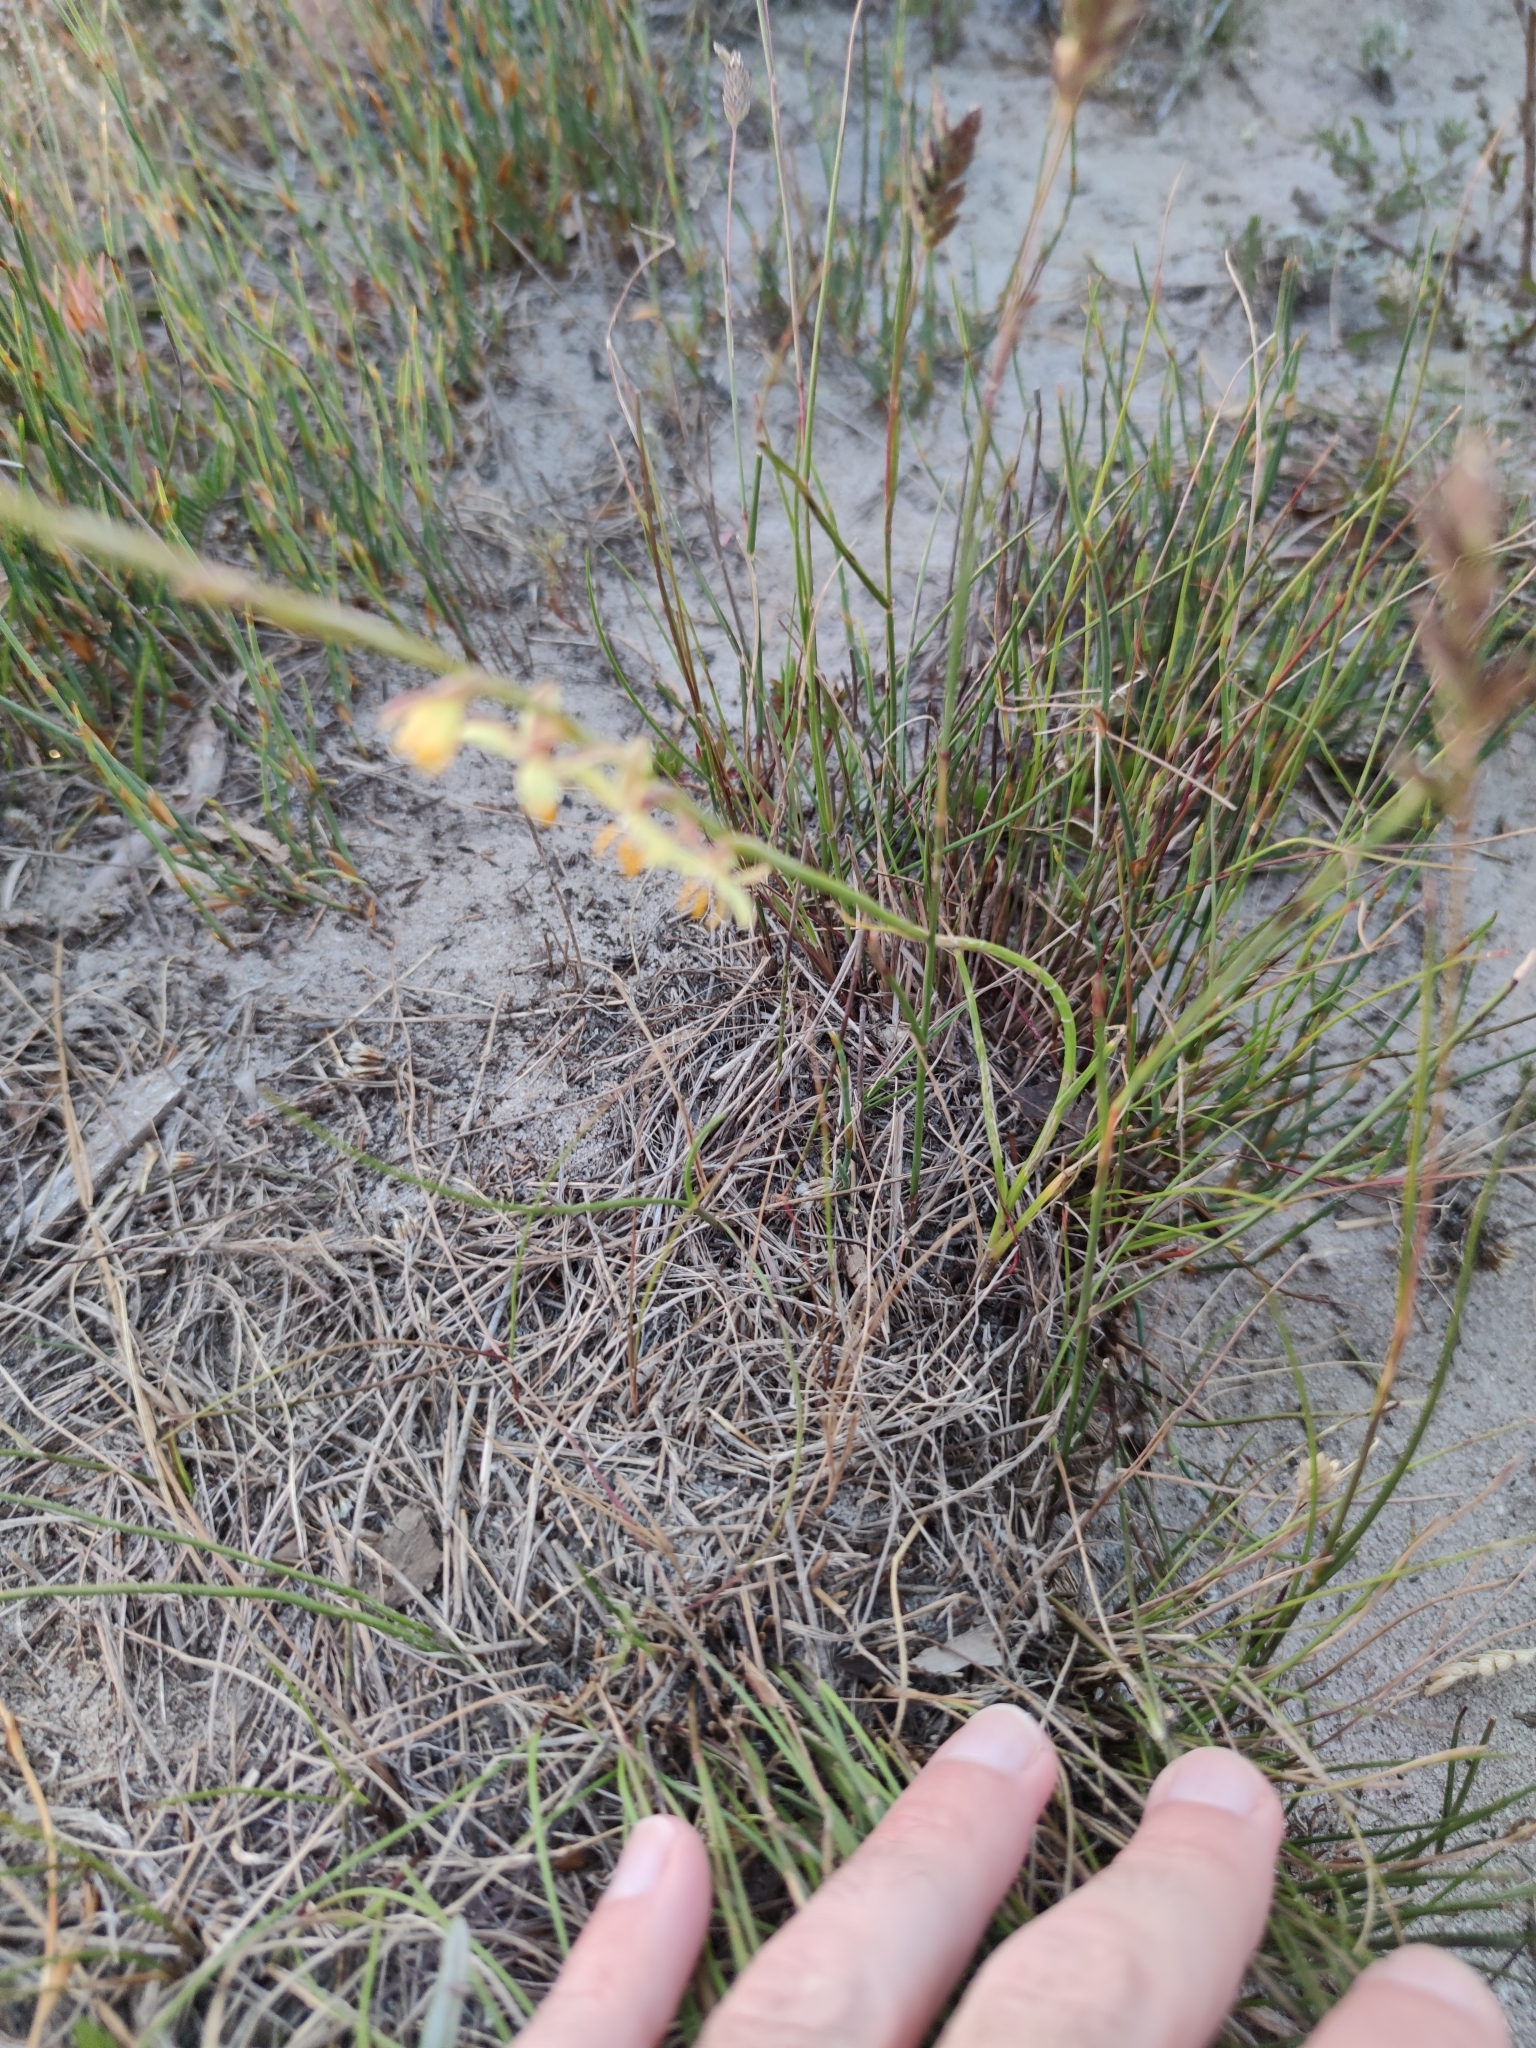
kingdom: Plantae
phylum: Tracheophyta
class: Liliopsida
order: Asparagales
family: Iridaceae
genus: Hesperantha
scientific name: Hesperantha radiata
